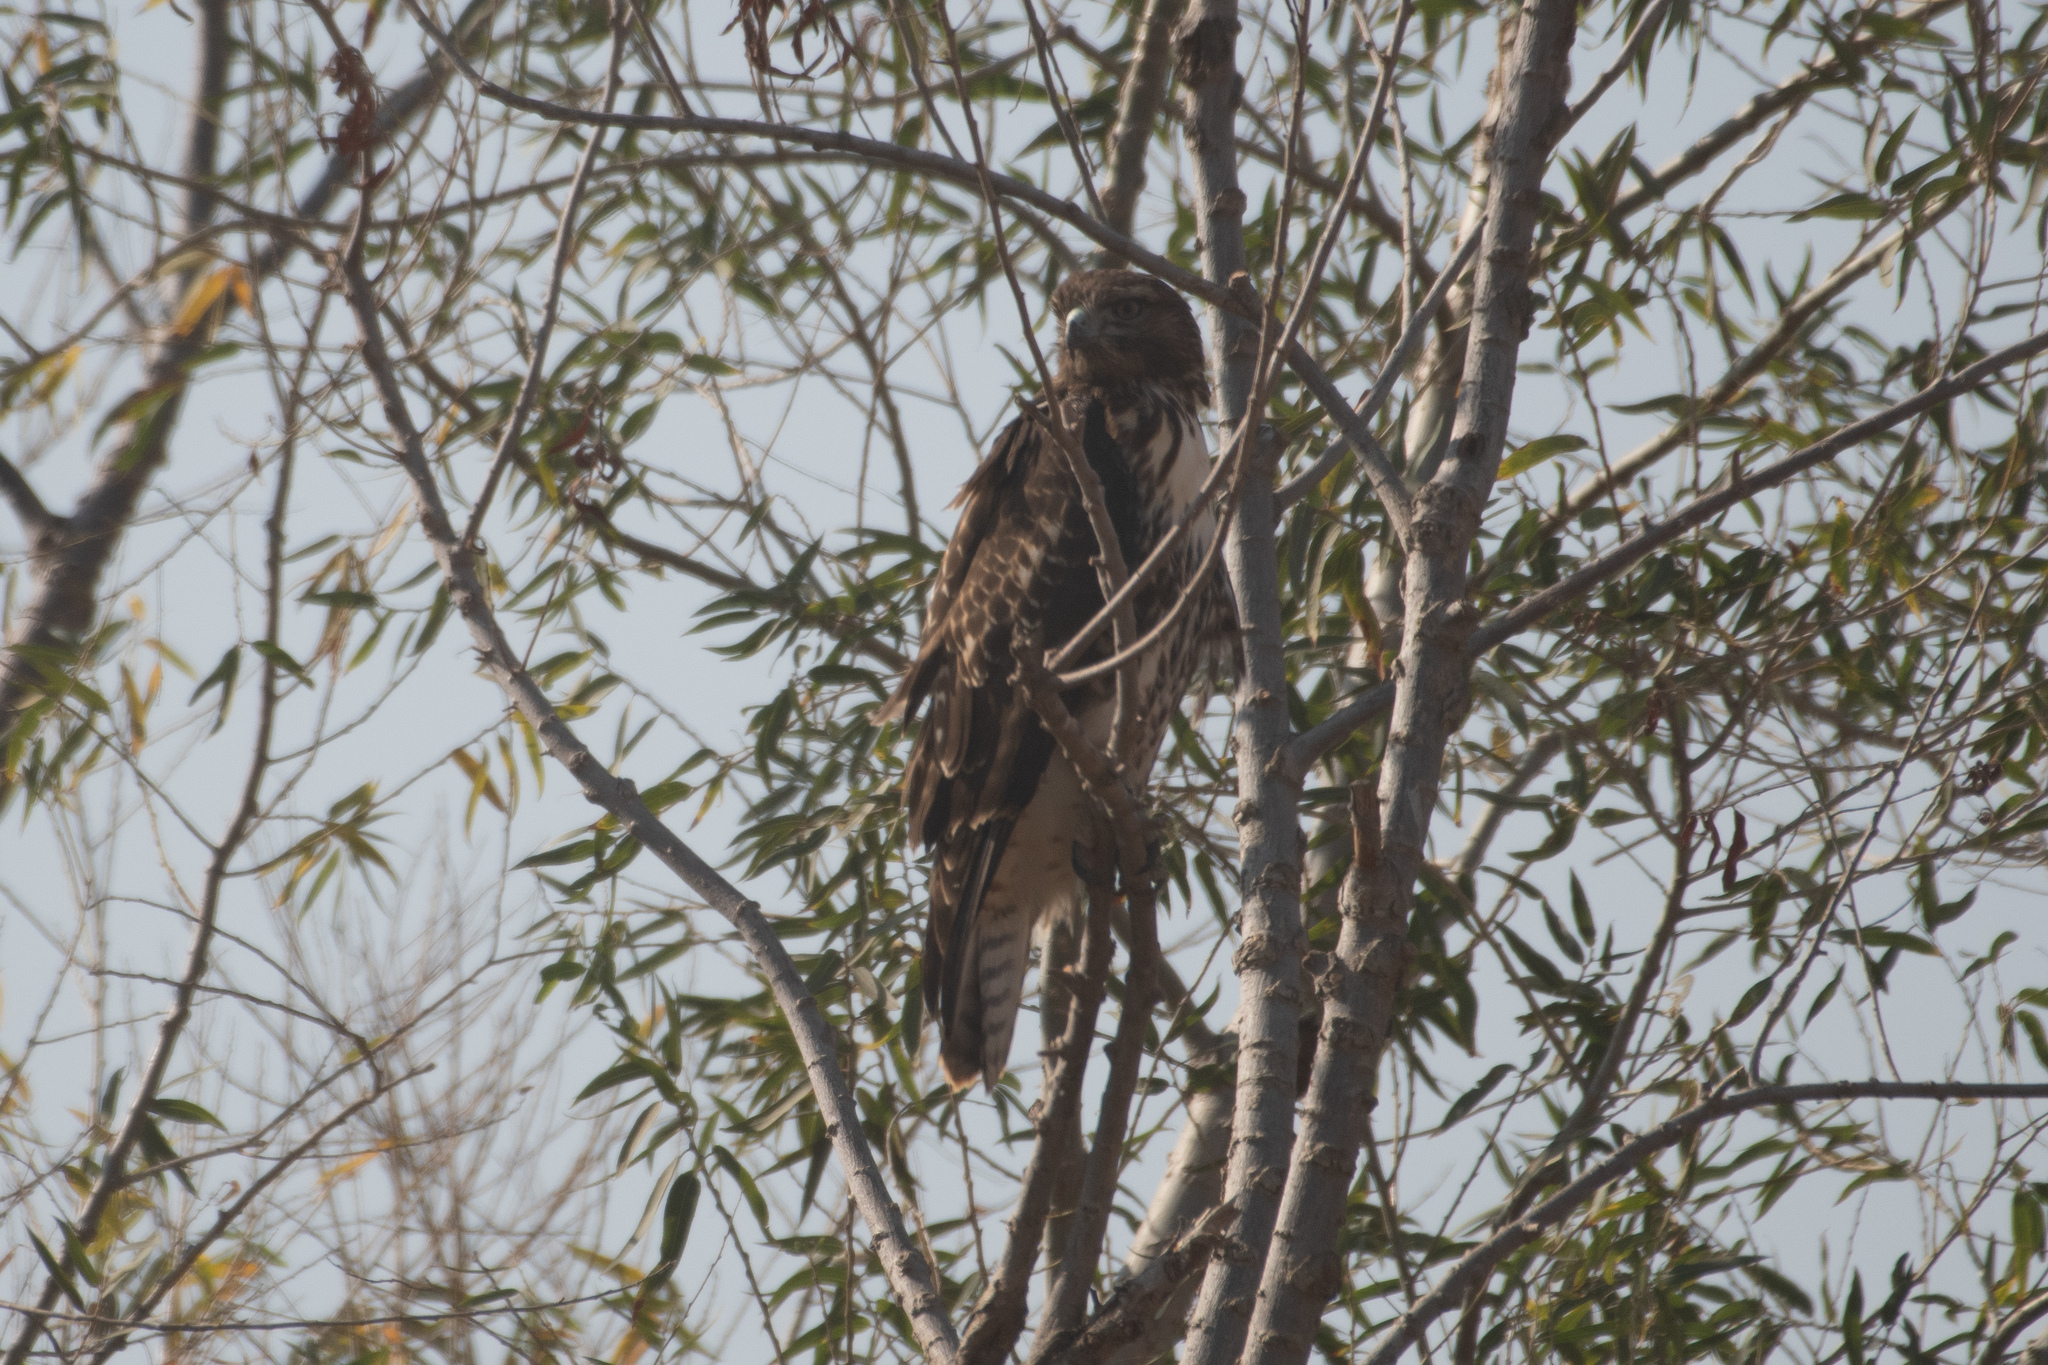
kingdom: Animalia
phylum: Chordata
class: Aves
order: Accipitriformes
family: Accipitridae
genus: Buteo
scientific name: Buteo jamaicensis
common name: Red-tailed hawk
